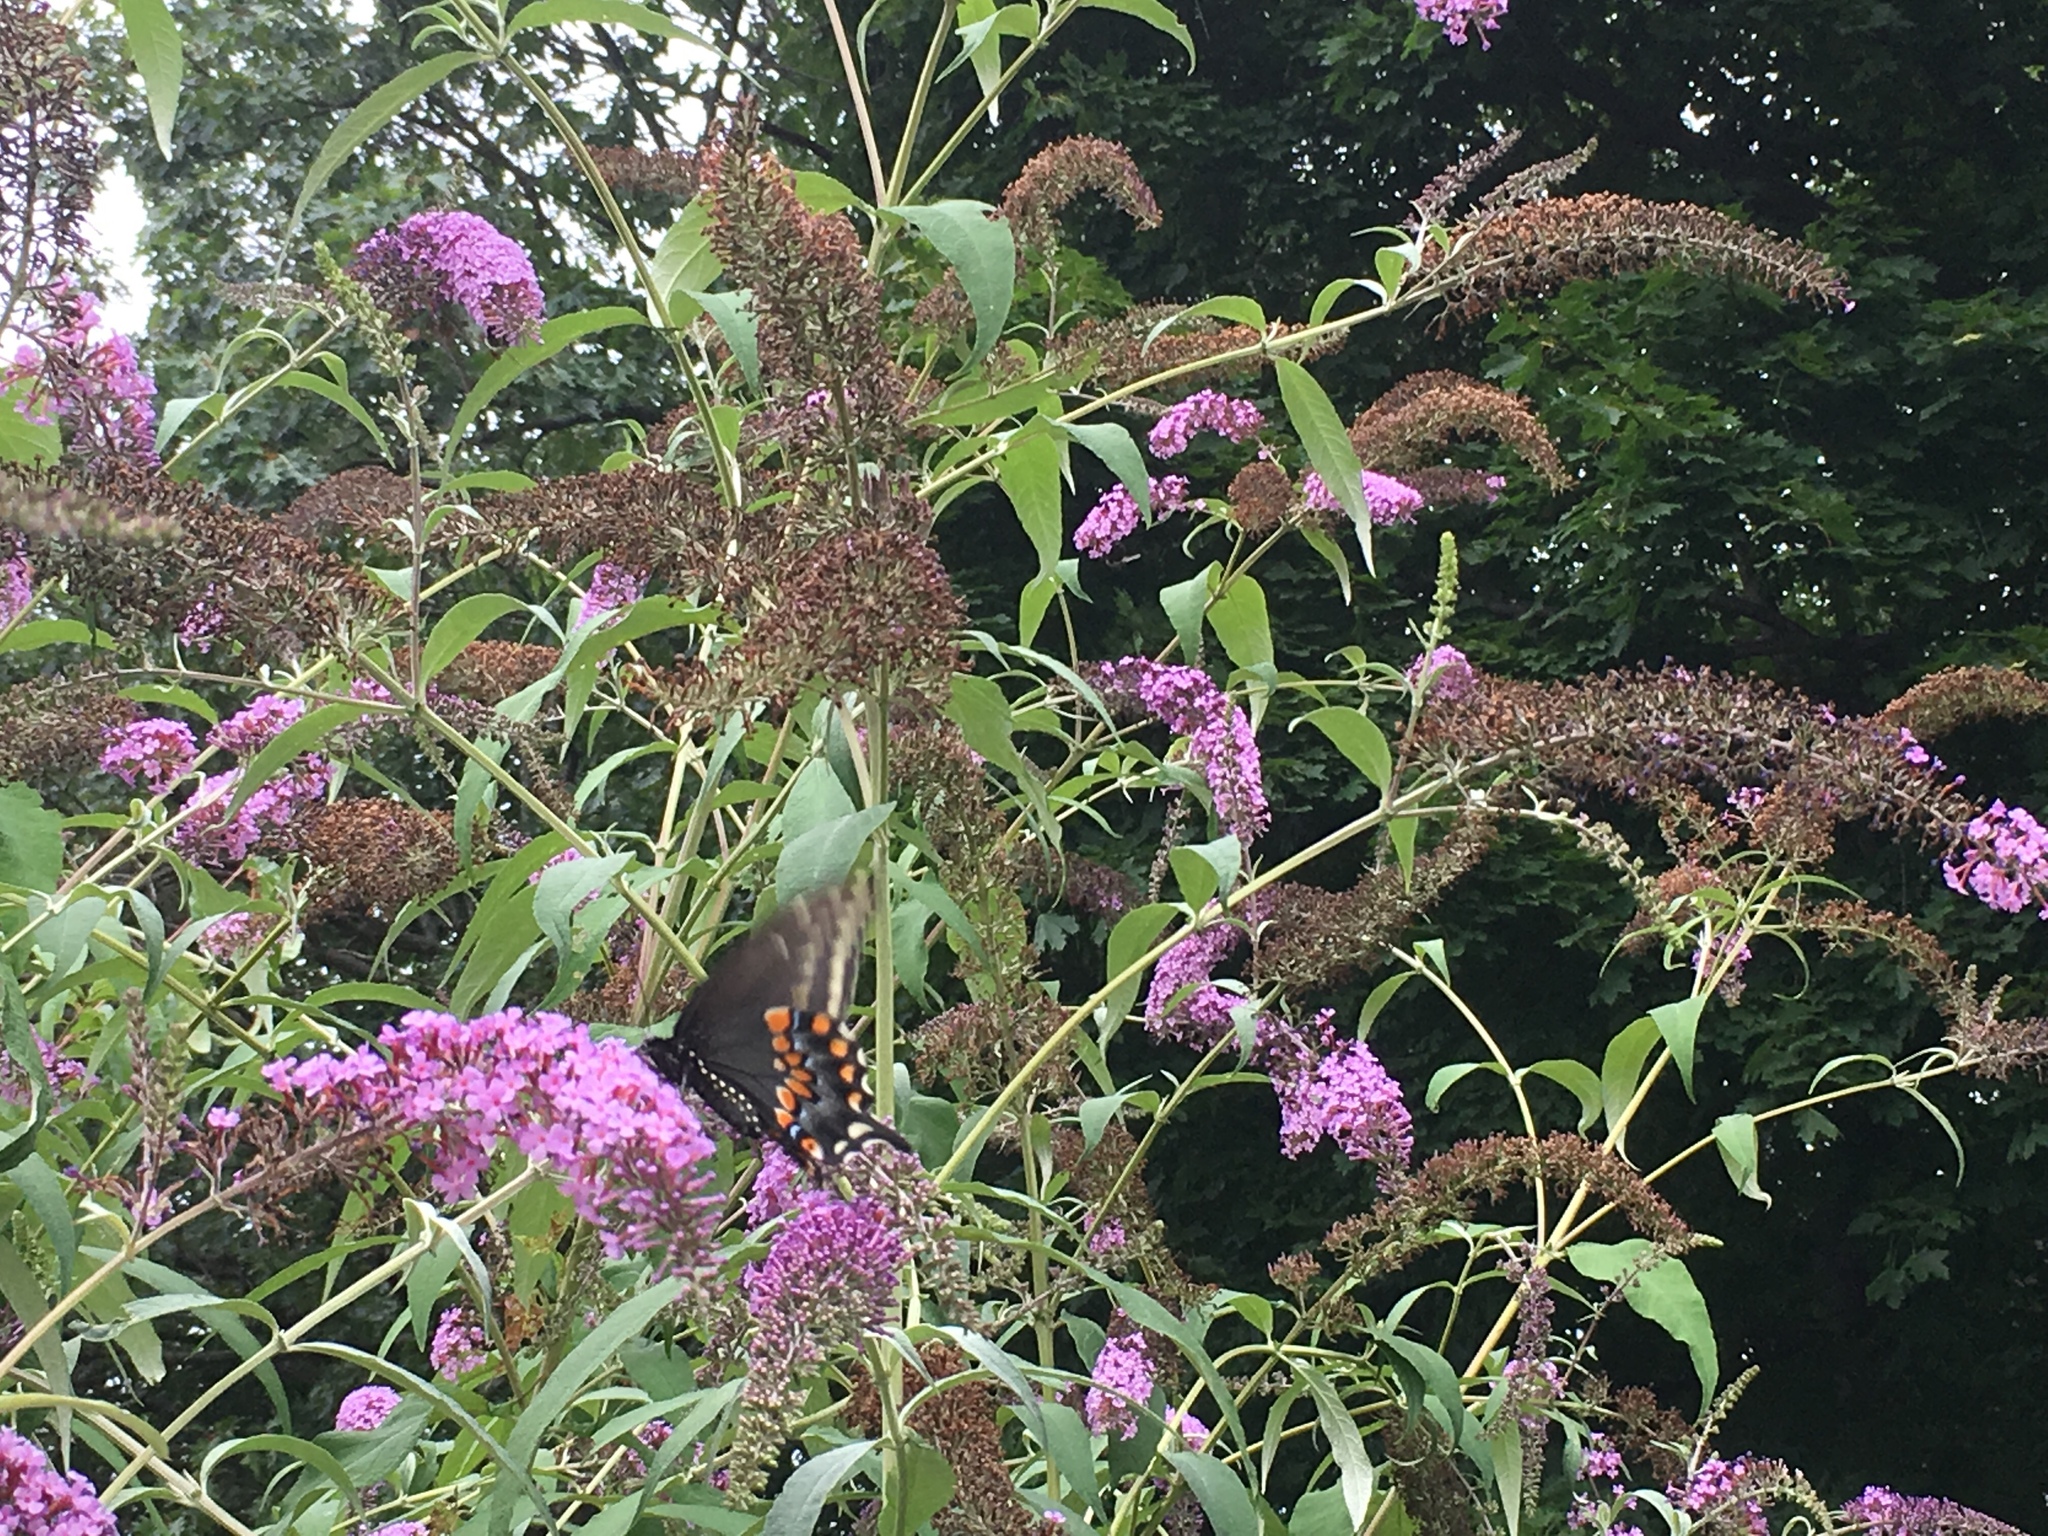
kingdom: Animalia
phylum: Arthropoda
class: Insecta
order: Lepidoptera
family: Papilionidae
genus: Papilio
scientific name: Papilio polyxenes
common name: Black swallowtail
